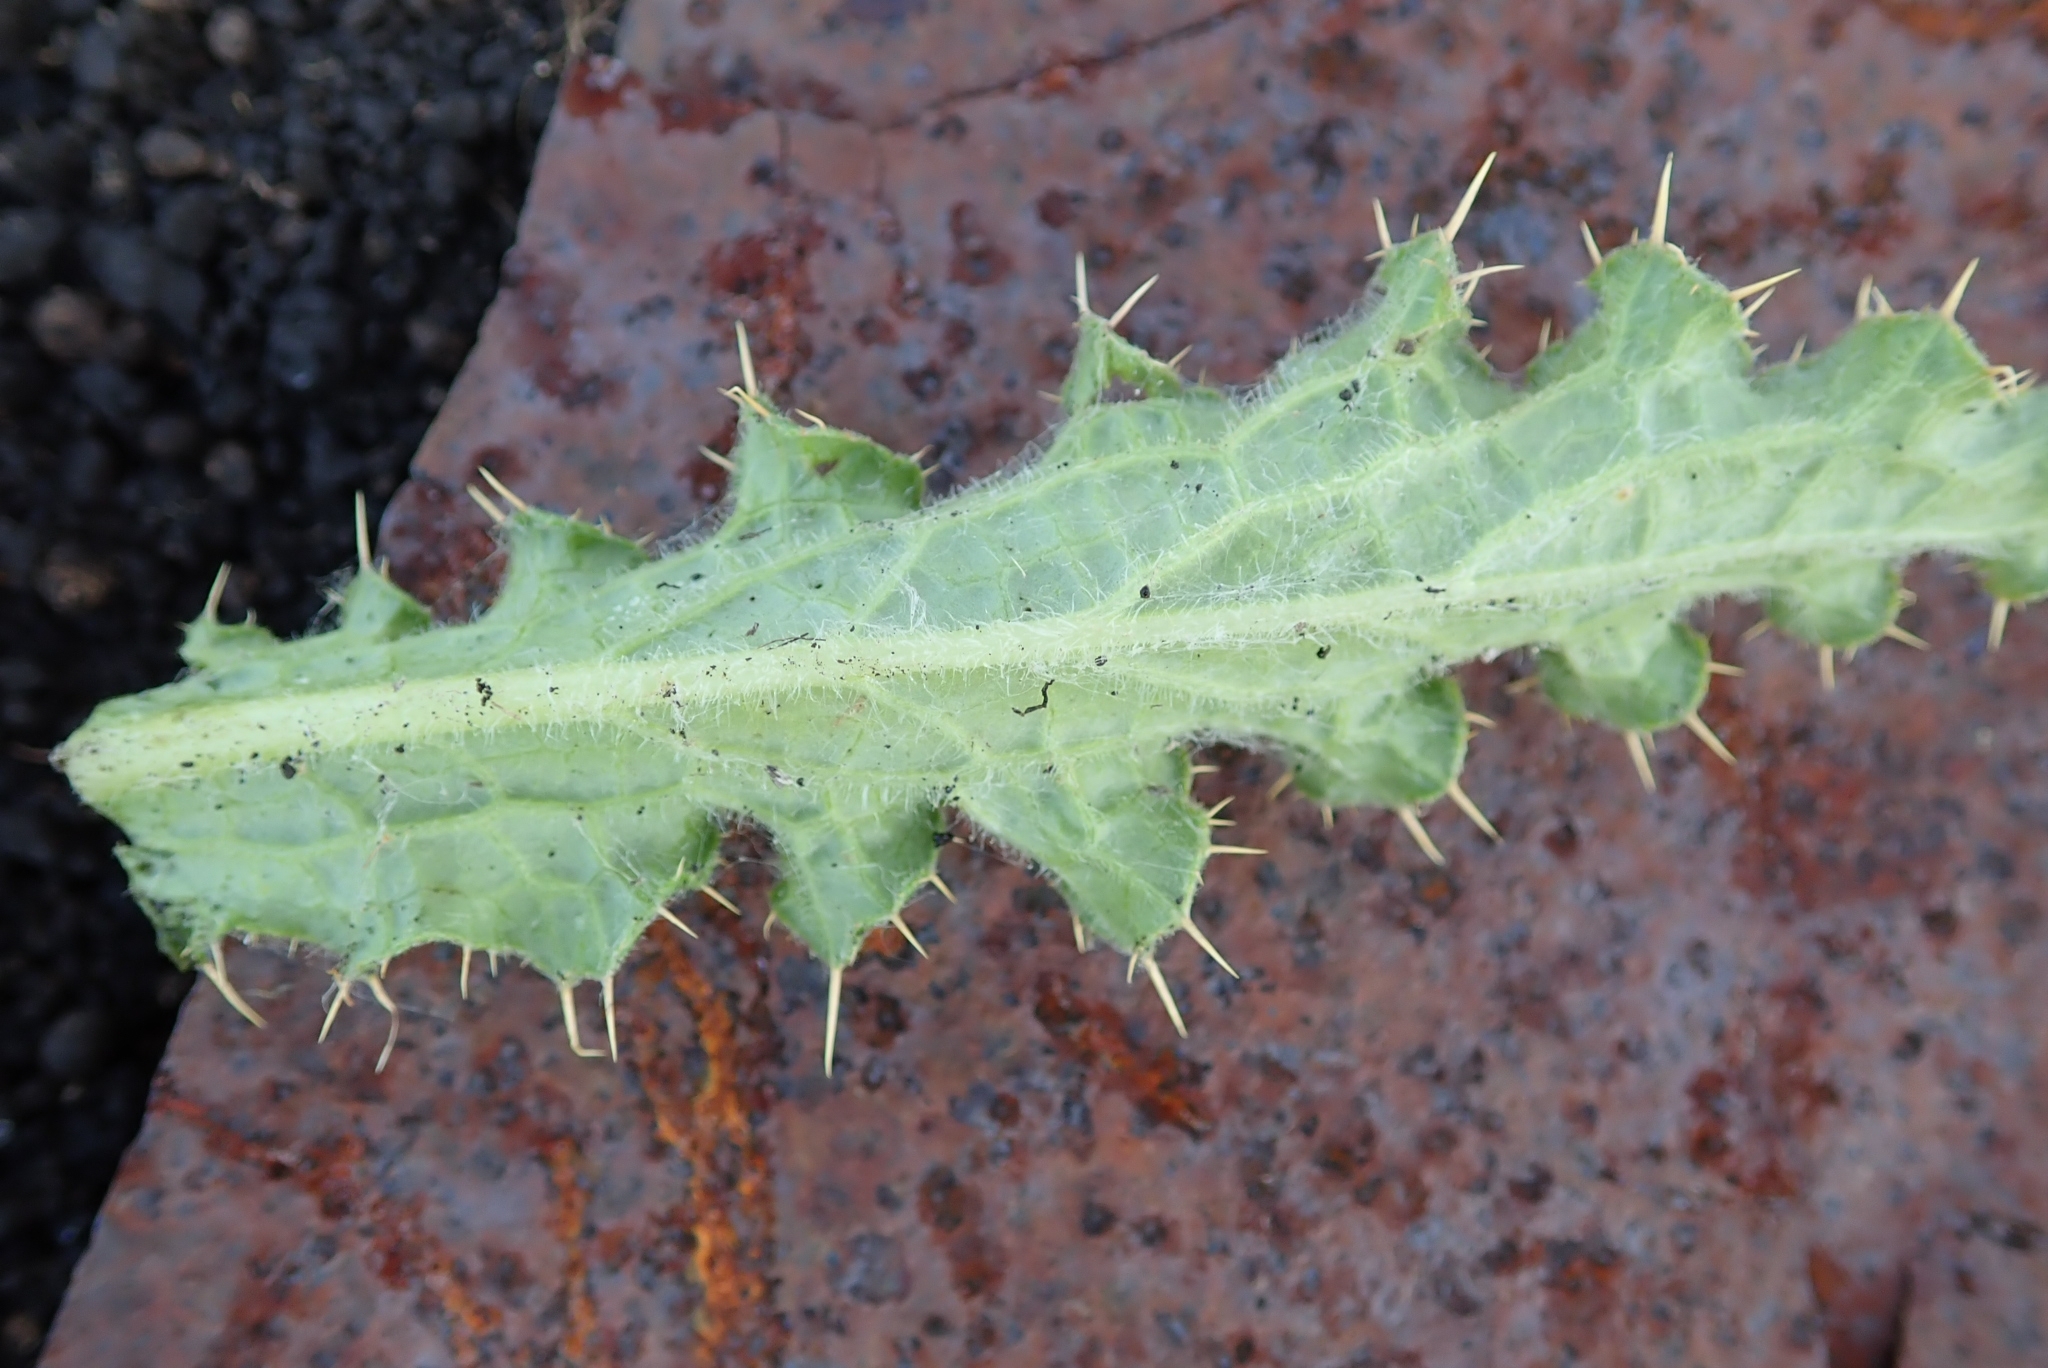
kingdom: Plantae
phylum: Tracheophyta
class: Magnoliopsida
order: Asterales
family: Asteraceae
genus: Berkheya
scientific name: Berkheya purpurea
